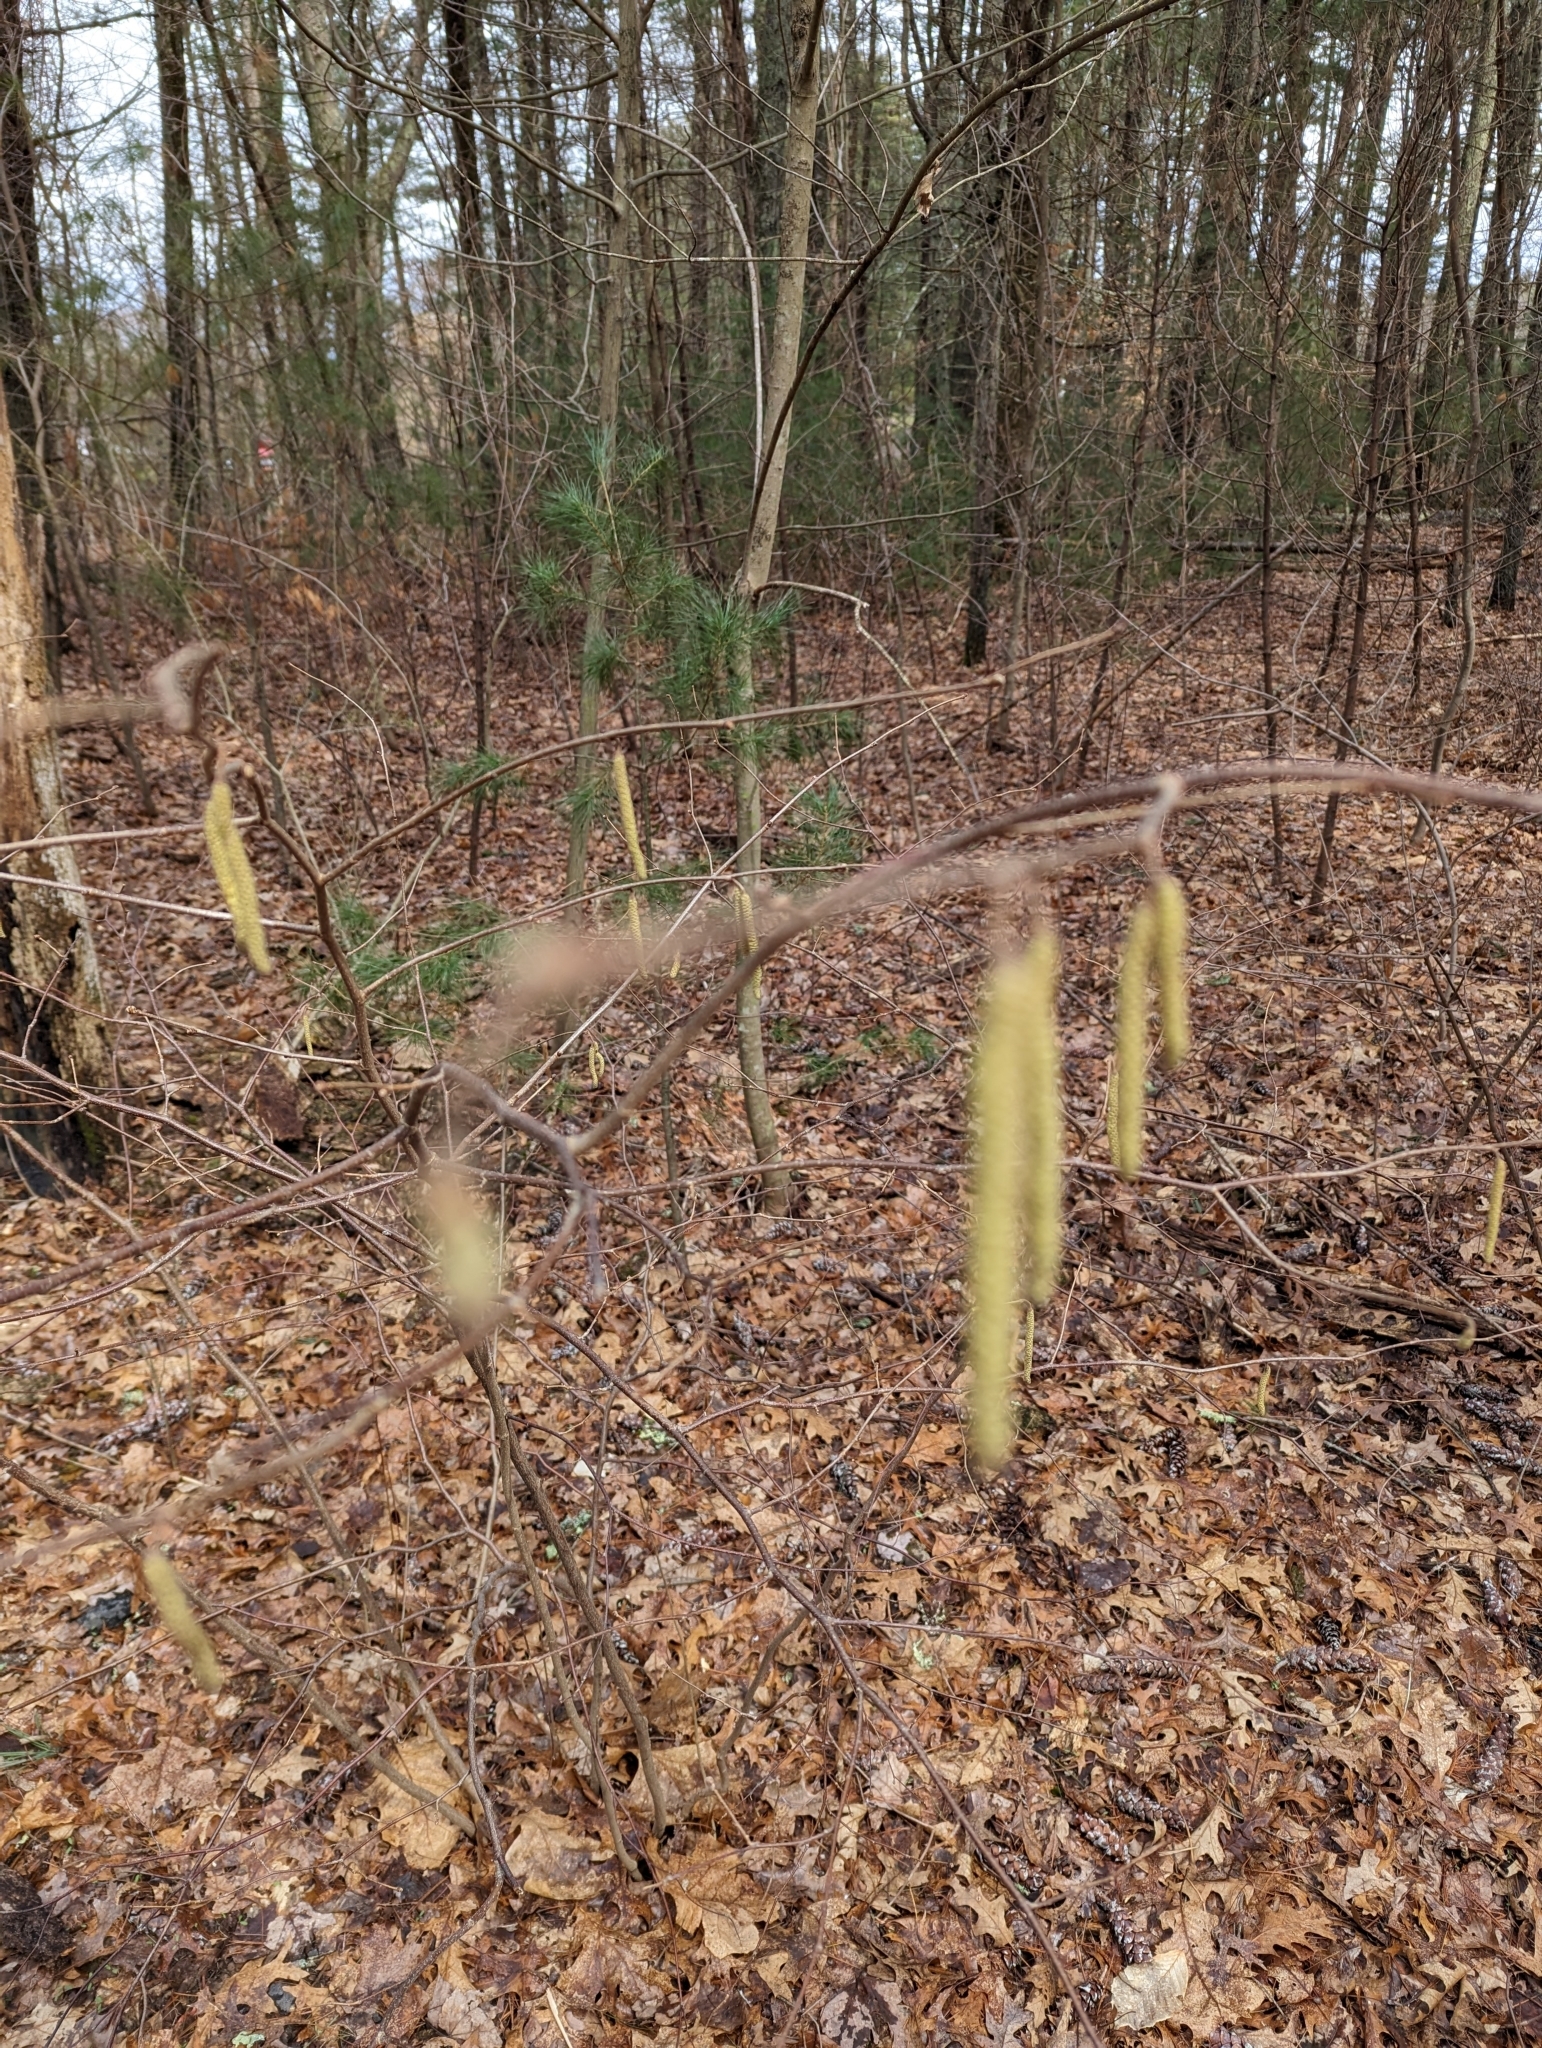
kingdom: Plantae
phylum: Tracheophyta
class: Magnoliopsida
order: Fagales
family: Betulaceae
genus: Corylus
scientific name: Corylus cornuta
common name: Beaked hazel
